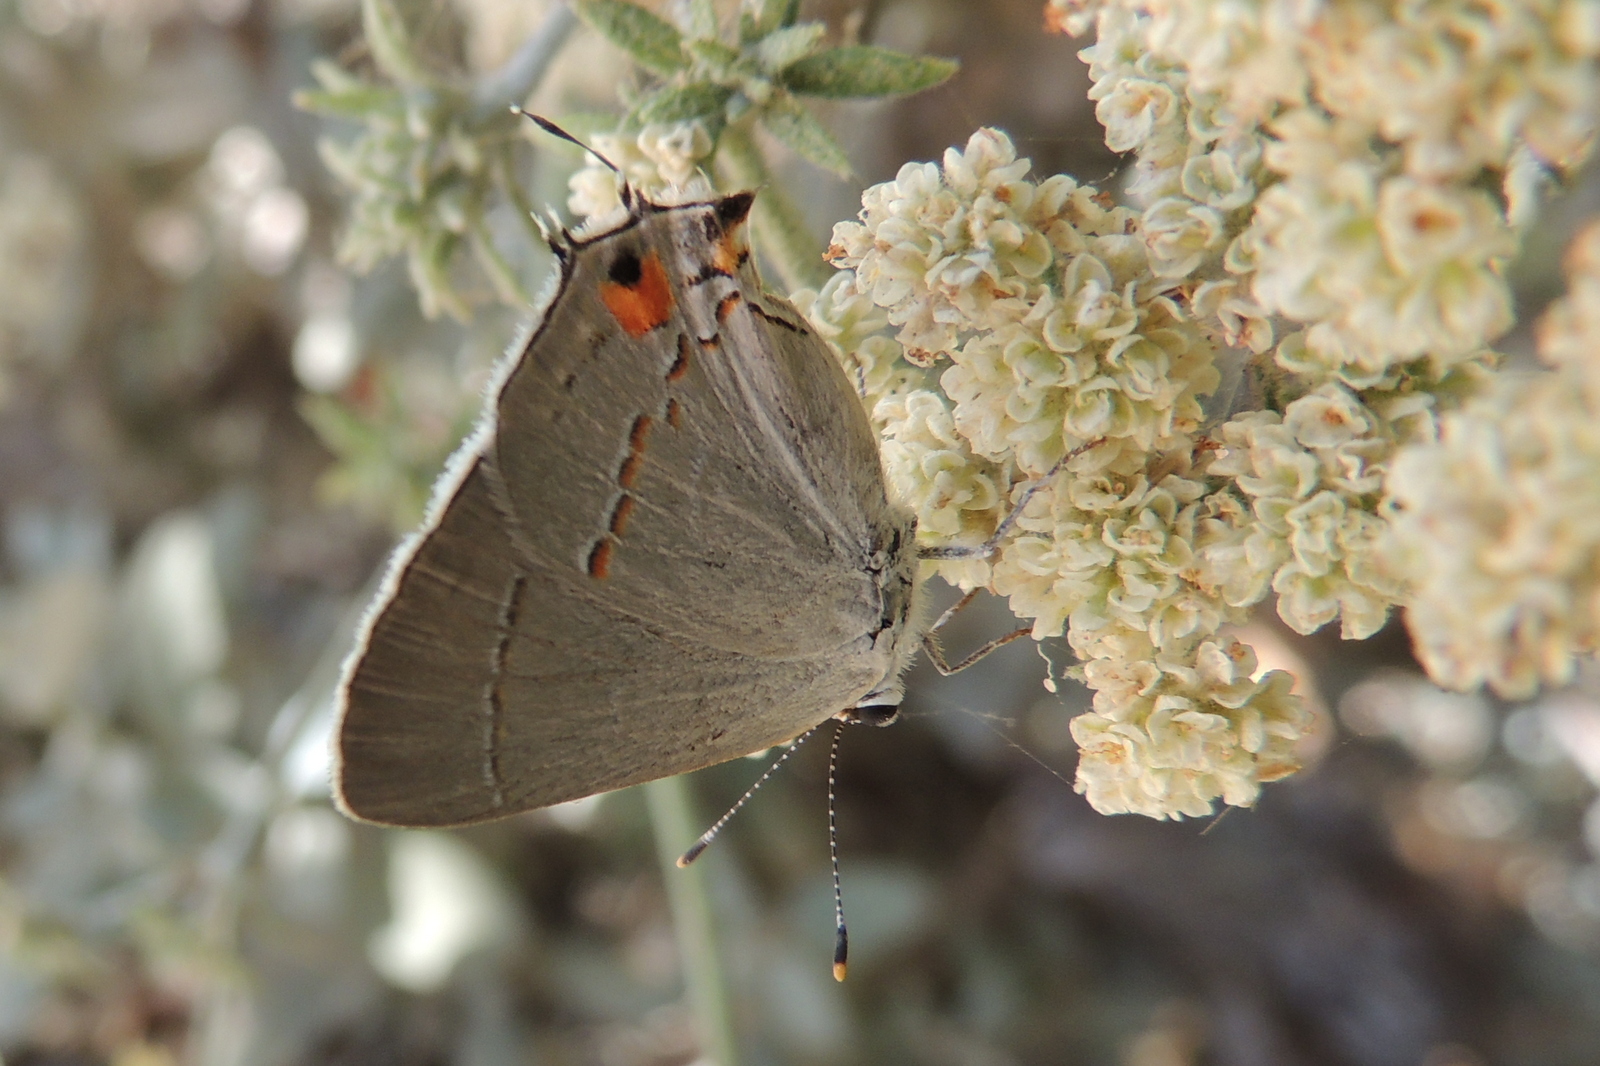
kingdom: Animalia
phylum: Arthropoda
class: Insecta
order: Lepidoptera
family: Lycaenidae
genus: Strymon
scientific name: Strymon melinus
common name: Gray hairstreak
